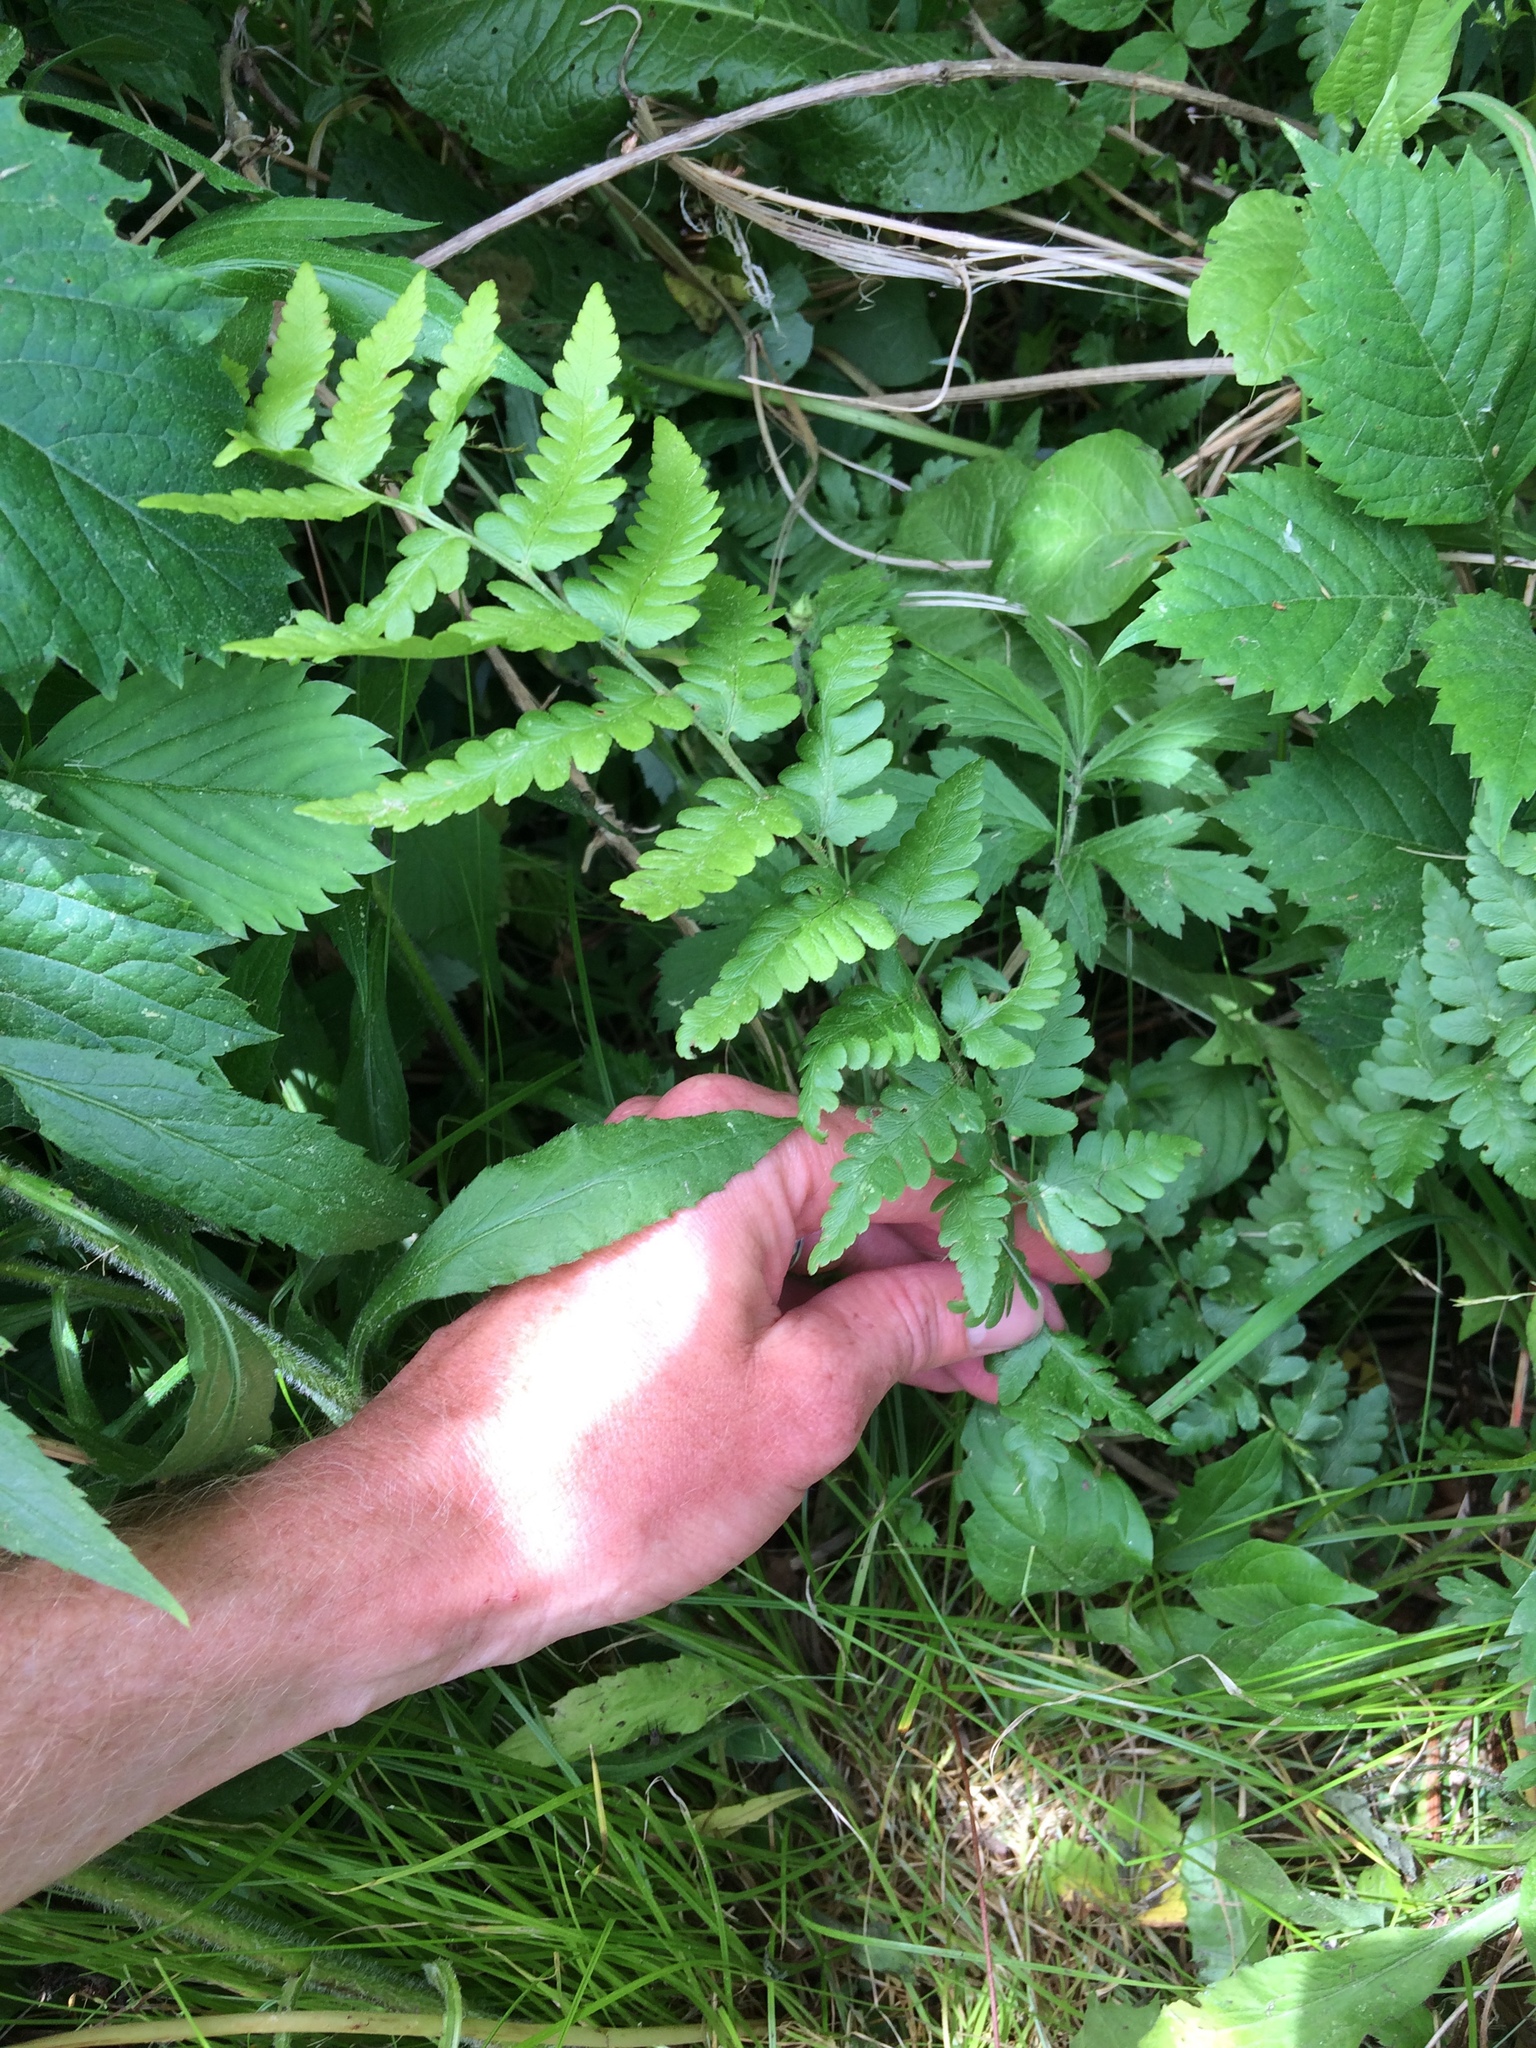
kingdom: Plantae
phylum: Tracheophyta
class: Polypodiopsida
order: Polypodiales
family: Dryopteridaceae
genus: Dryopteris
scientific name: Dryopteris cristata
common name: Crested wood fern
